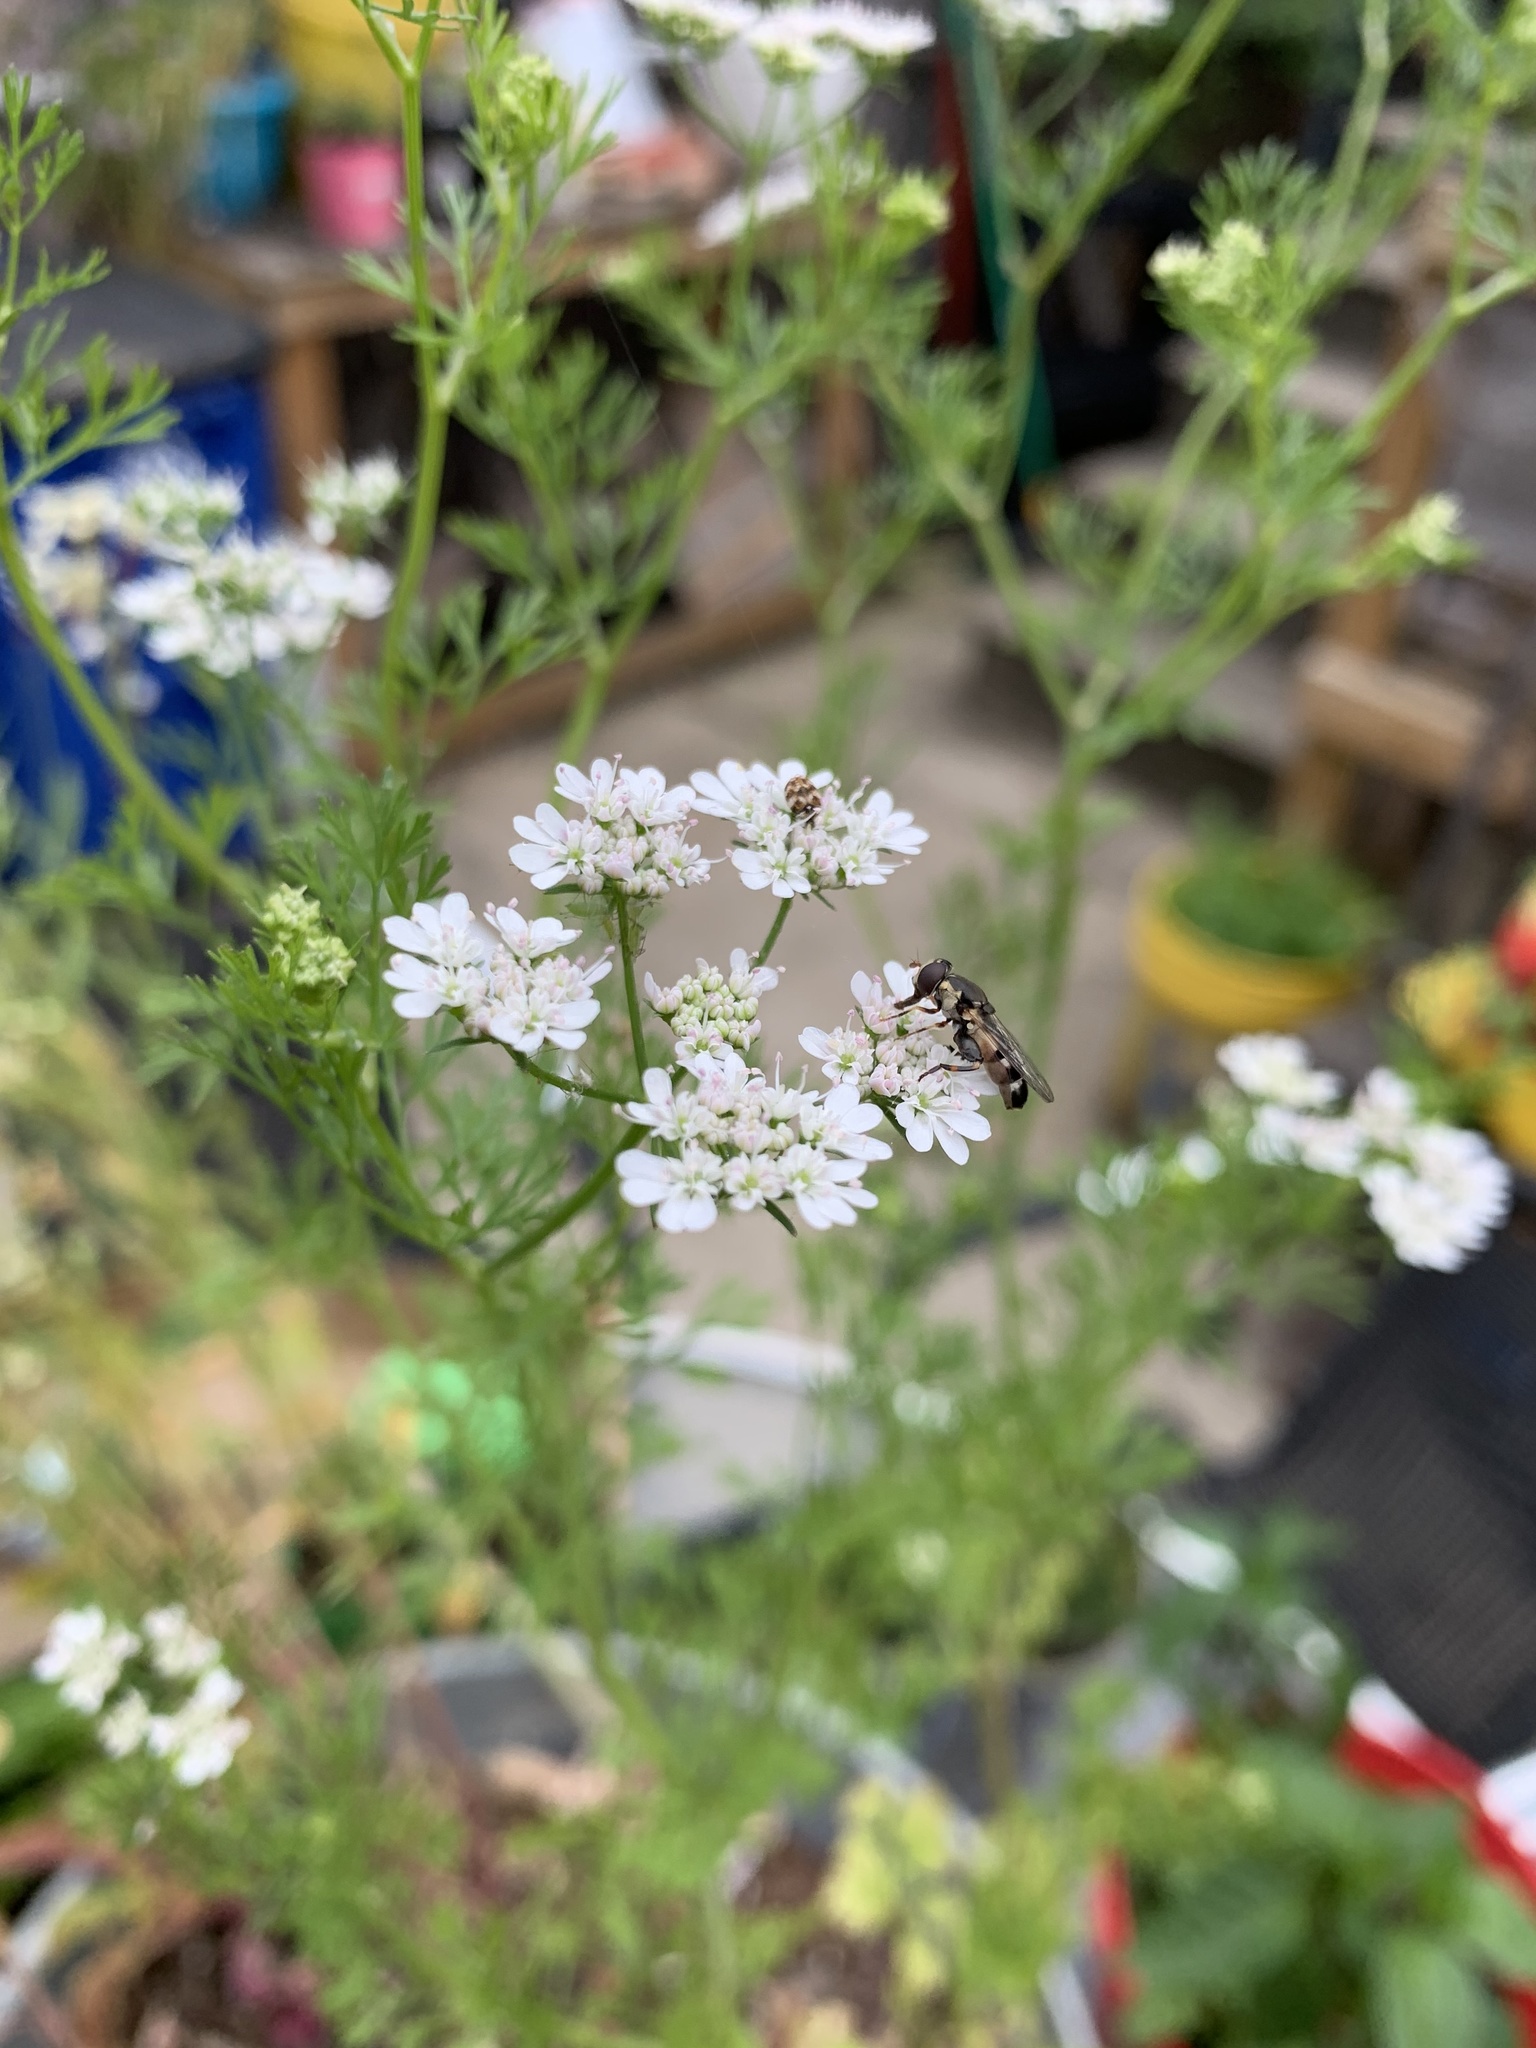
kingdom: Animalia
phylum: Arthropoda
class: Insecta
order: Diptera
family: Syrphidae
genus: Syritta
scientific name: Syritta pipiens
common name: Hover fly
